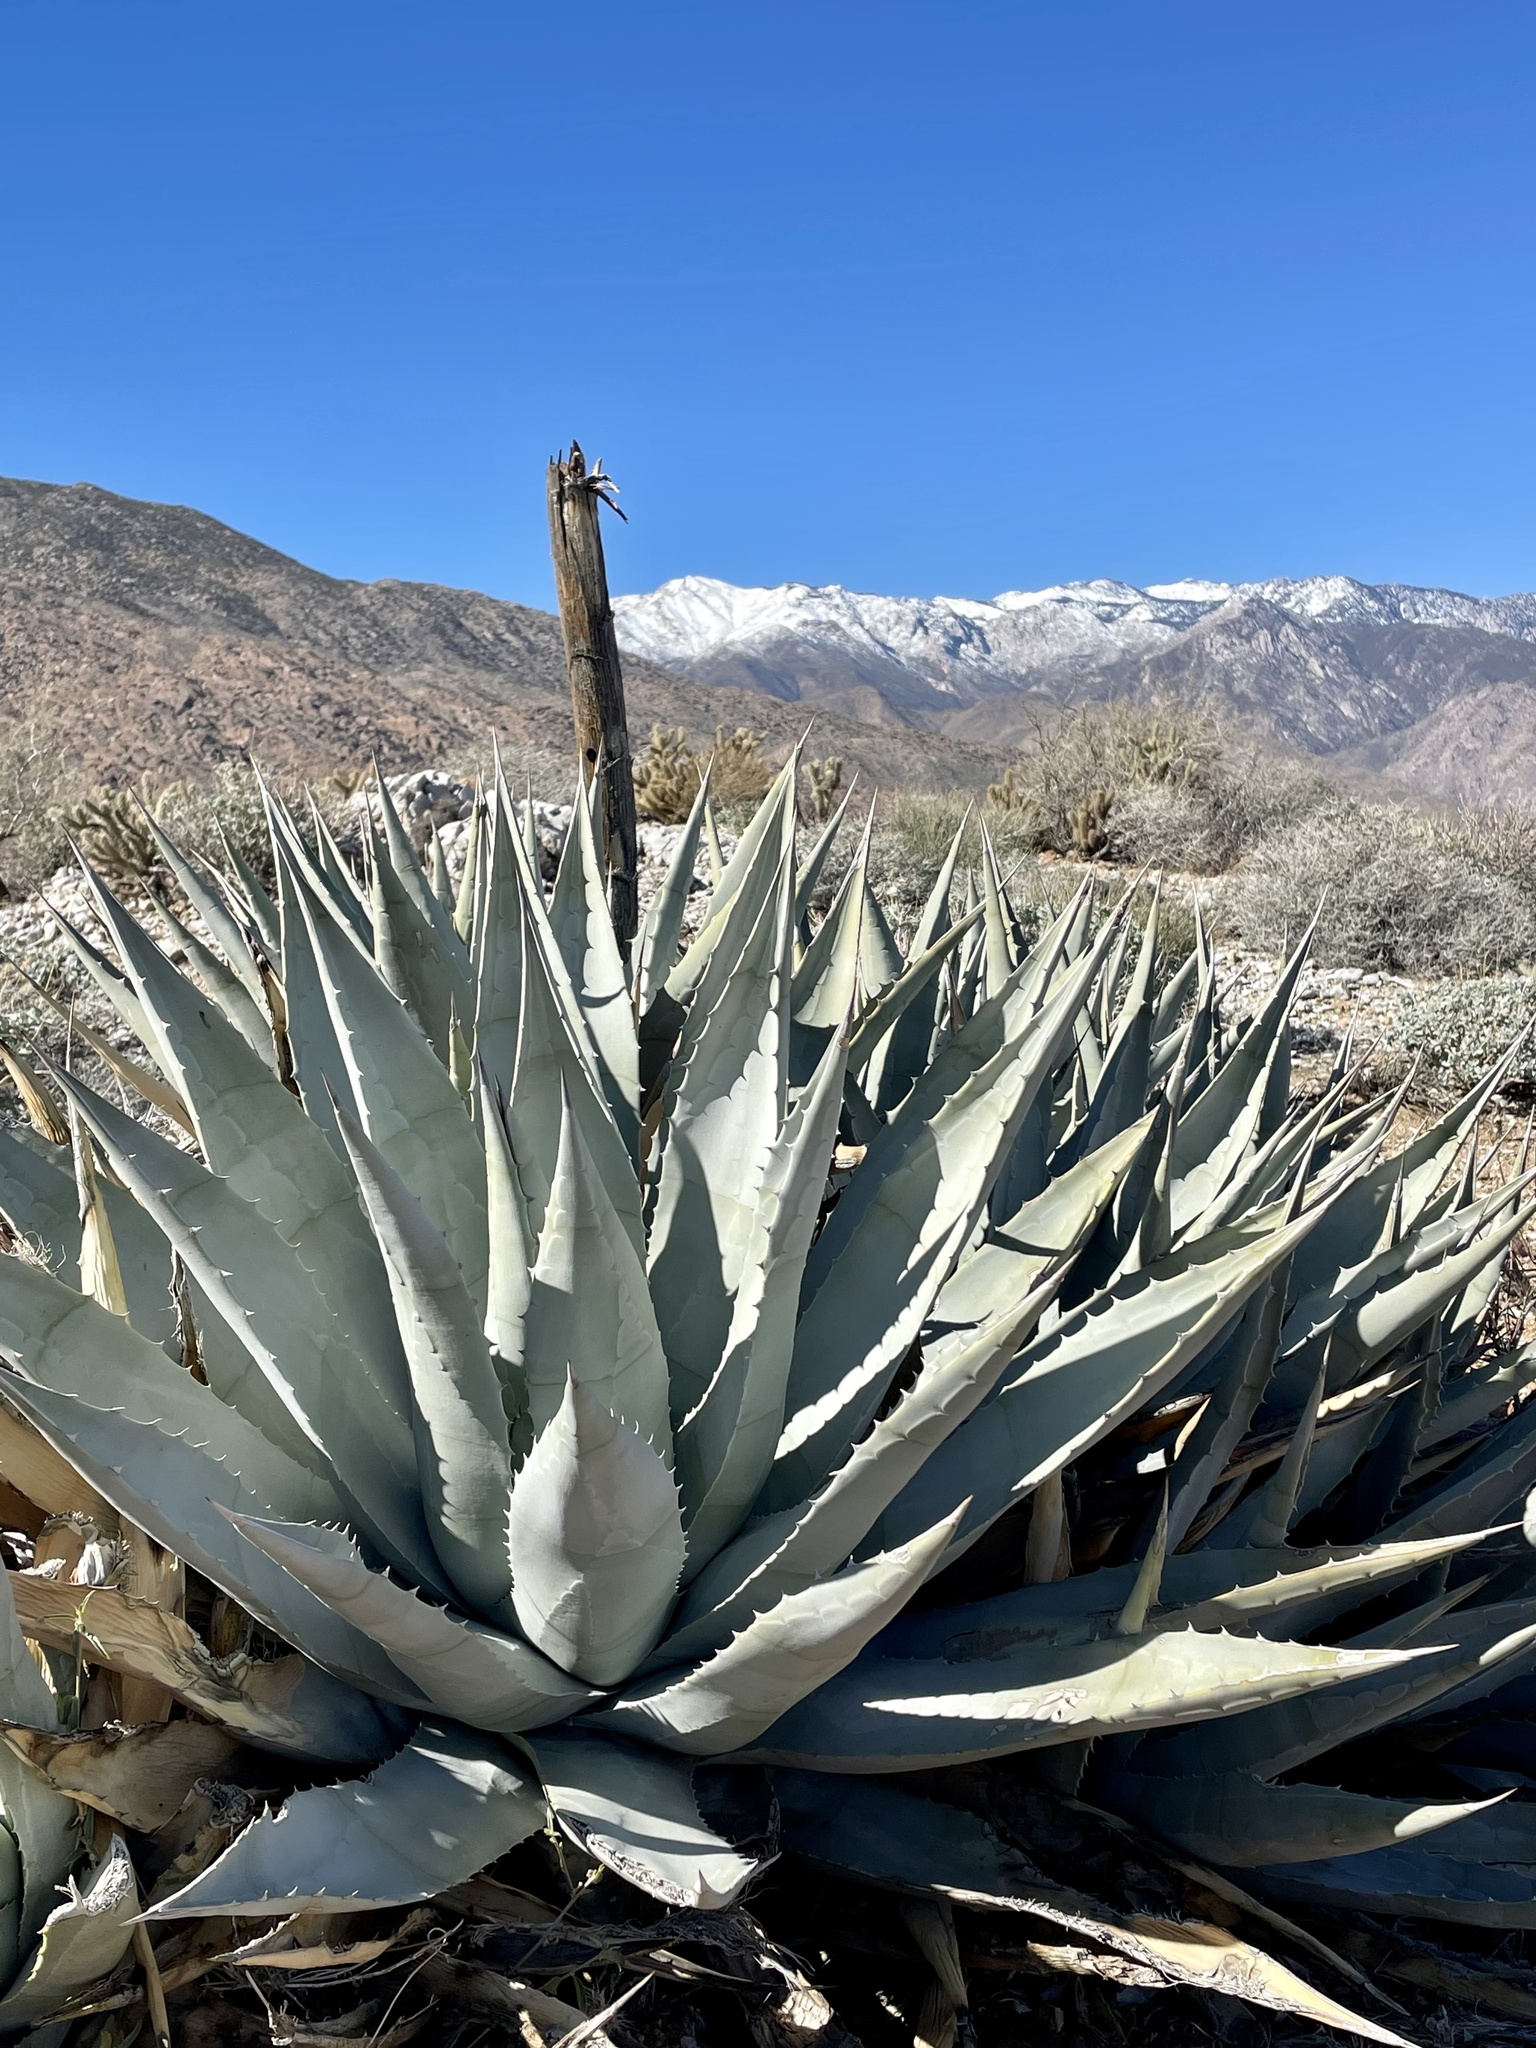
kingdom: Plantae
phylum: Tracheophyta
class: Liliopsida
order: Asparagales
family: Asparagaceae
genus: Agave
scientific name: Agave deserti
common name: Desert agave
